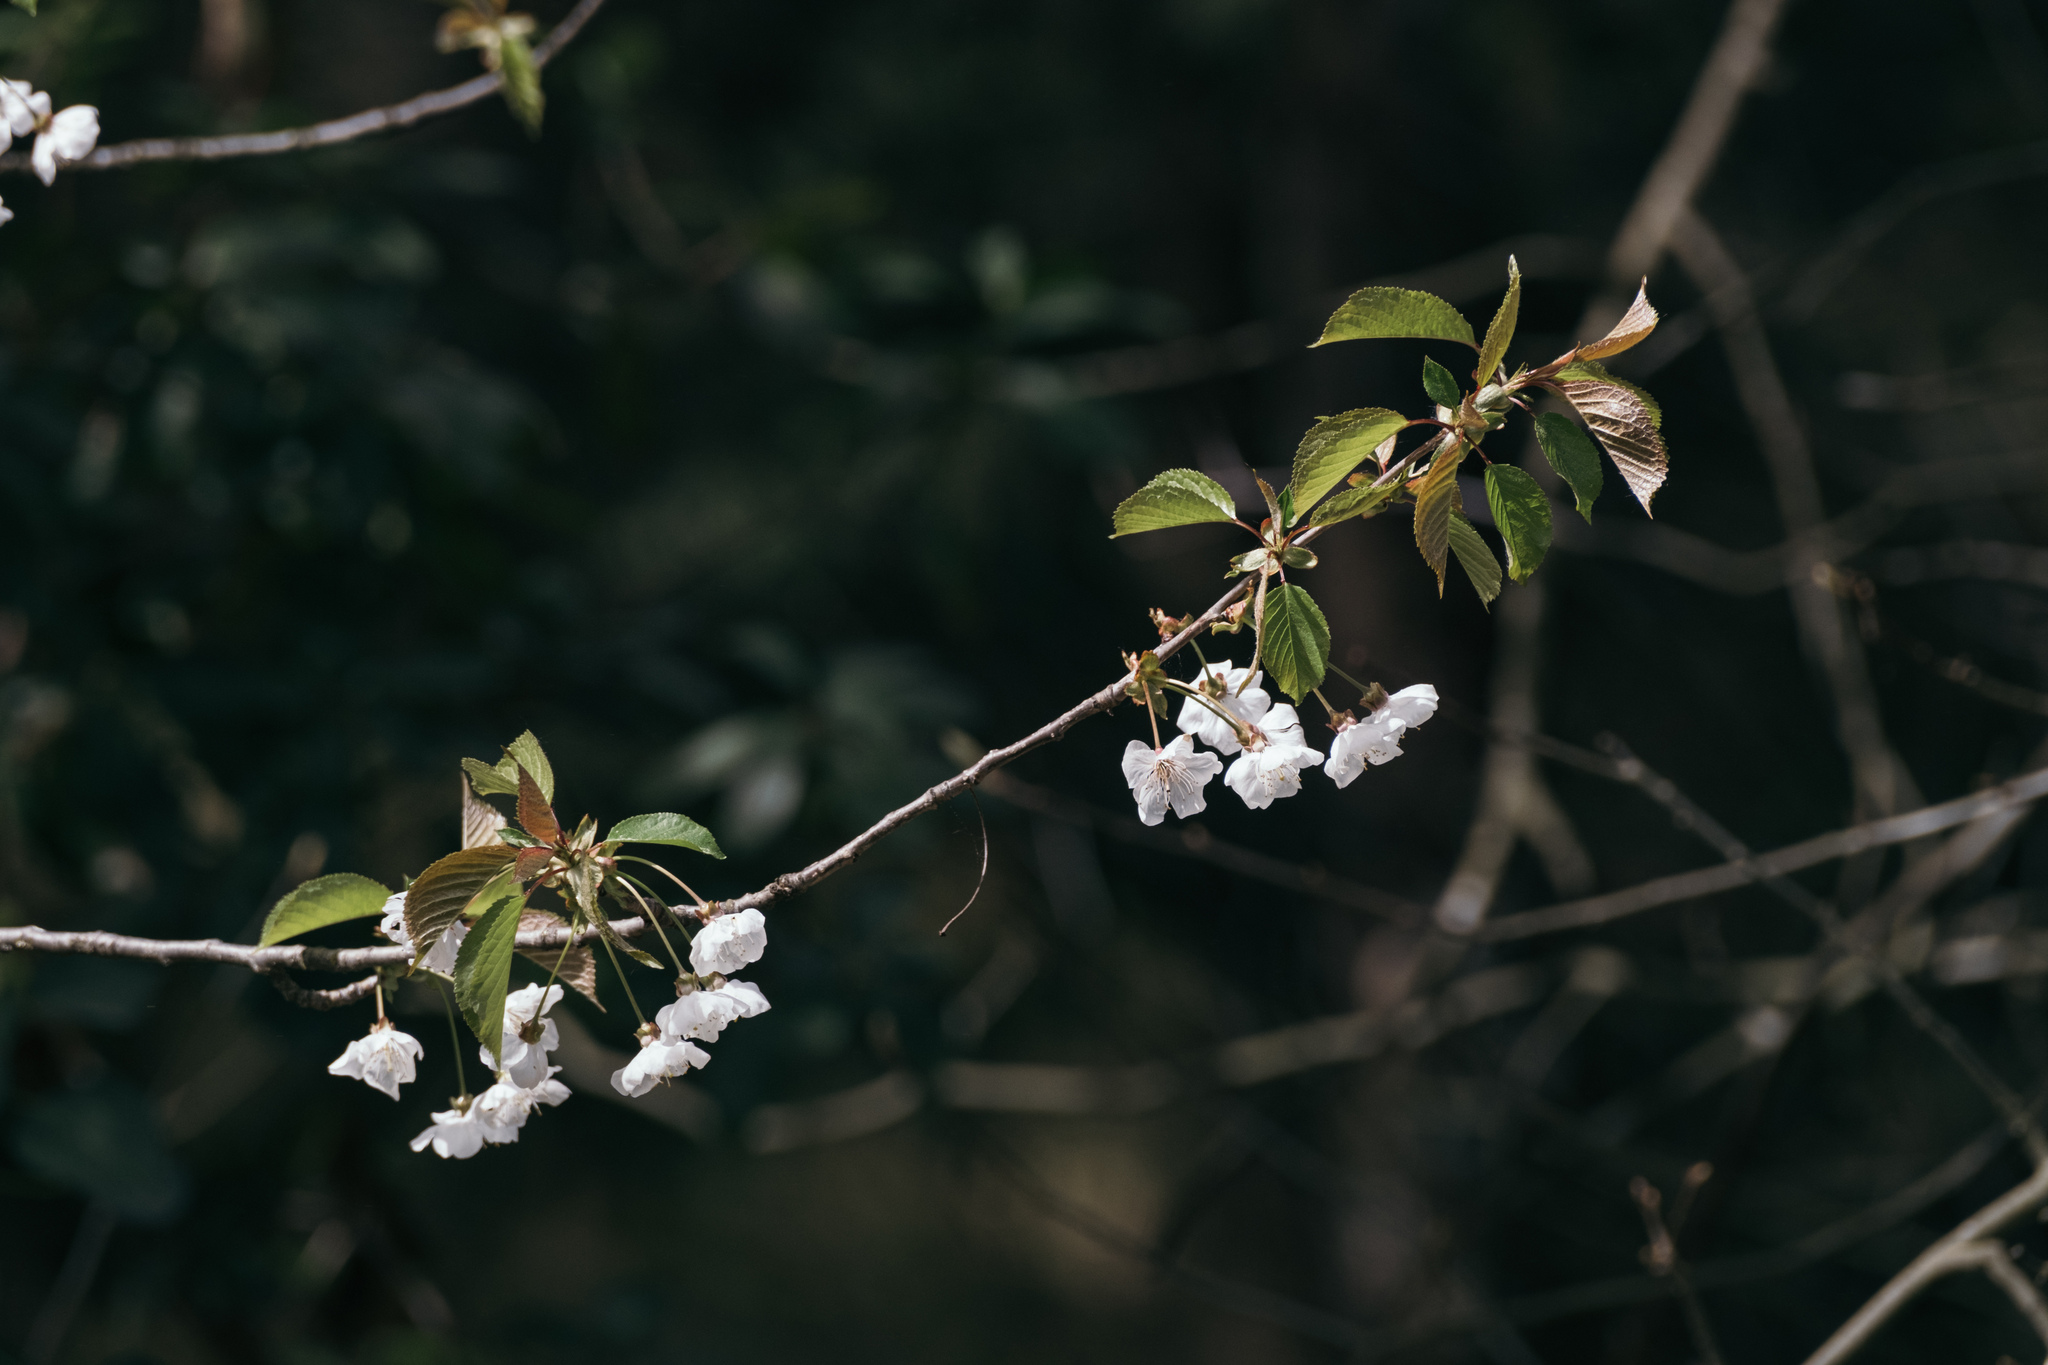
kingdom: Plantae
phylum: Tracheophyta
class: Magnoliopsida
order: Rosales
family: Rosaceae
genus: Prunus
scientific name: Prunus avium
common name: Sweet cherry
